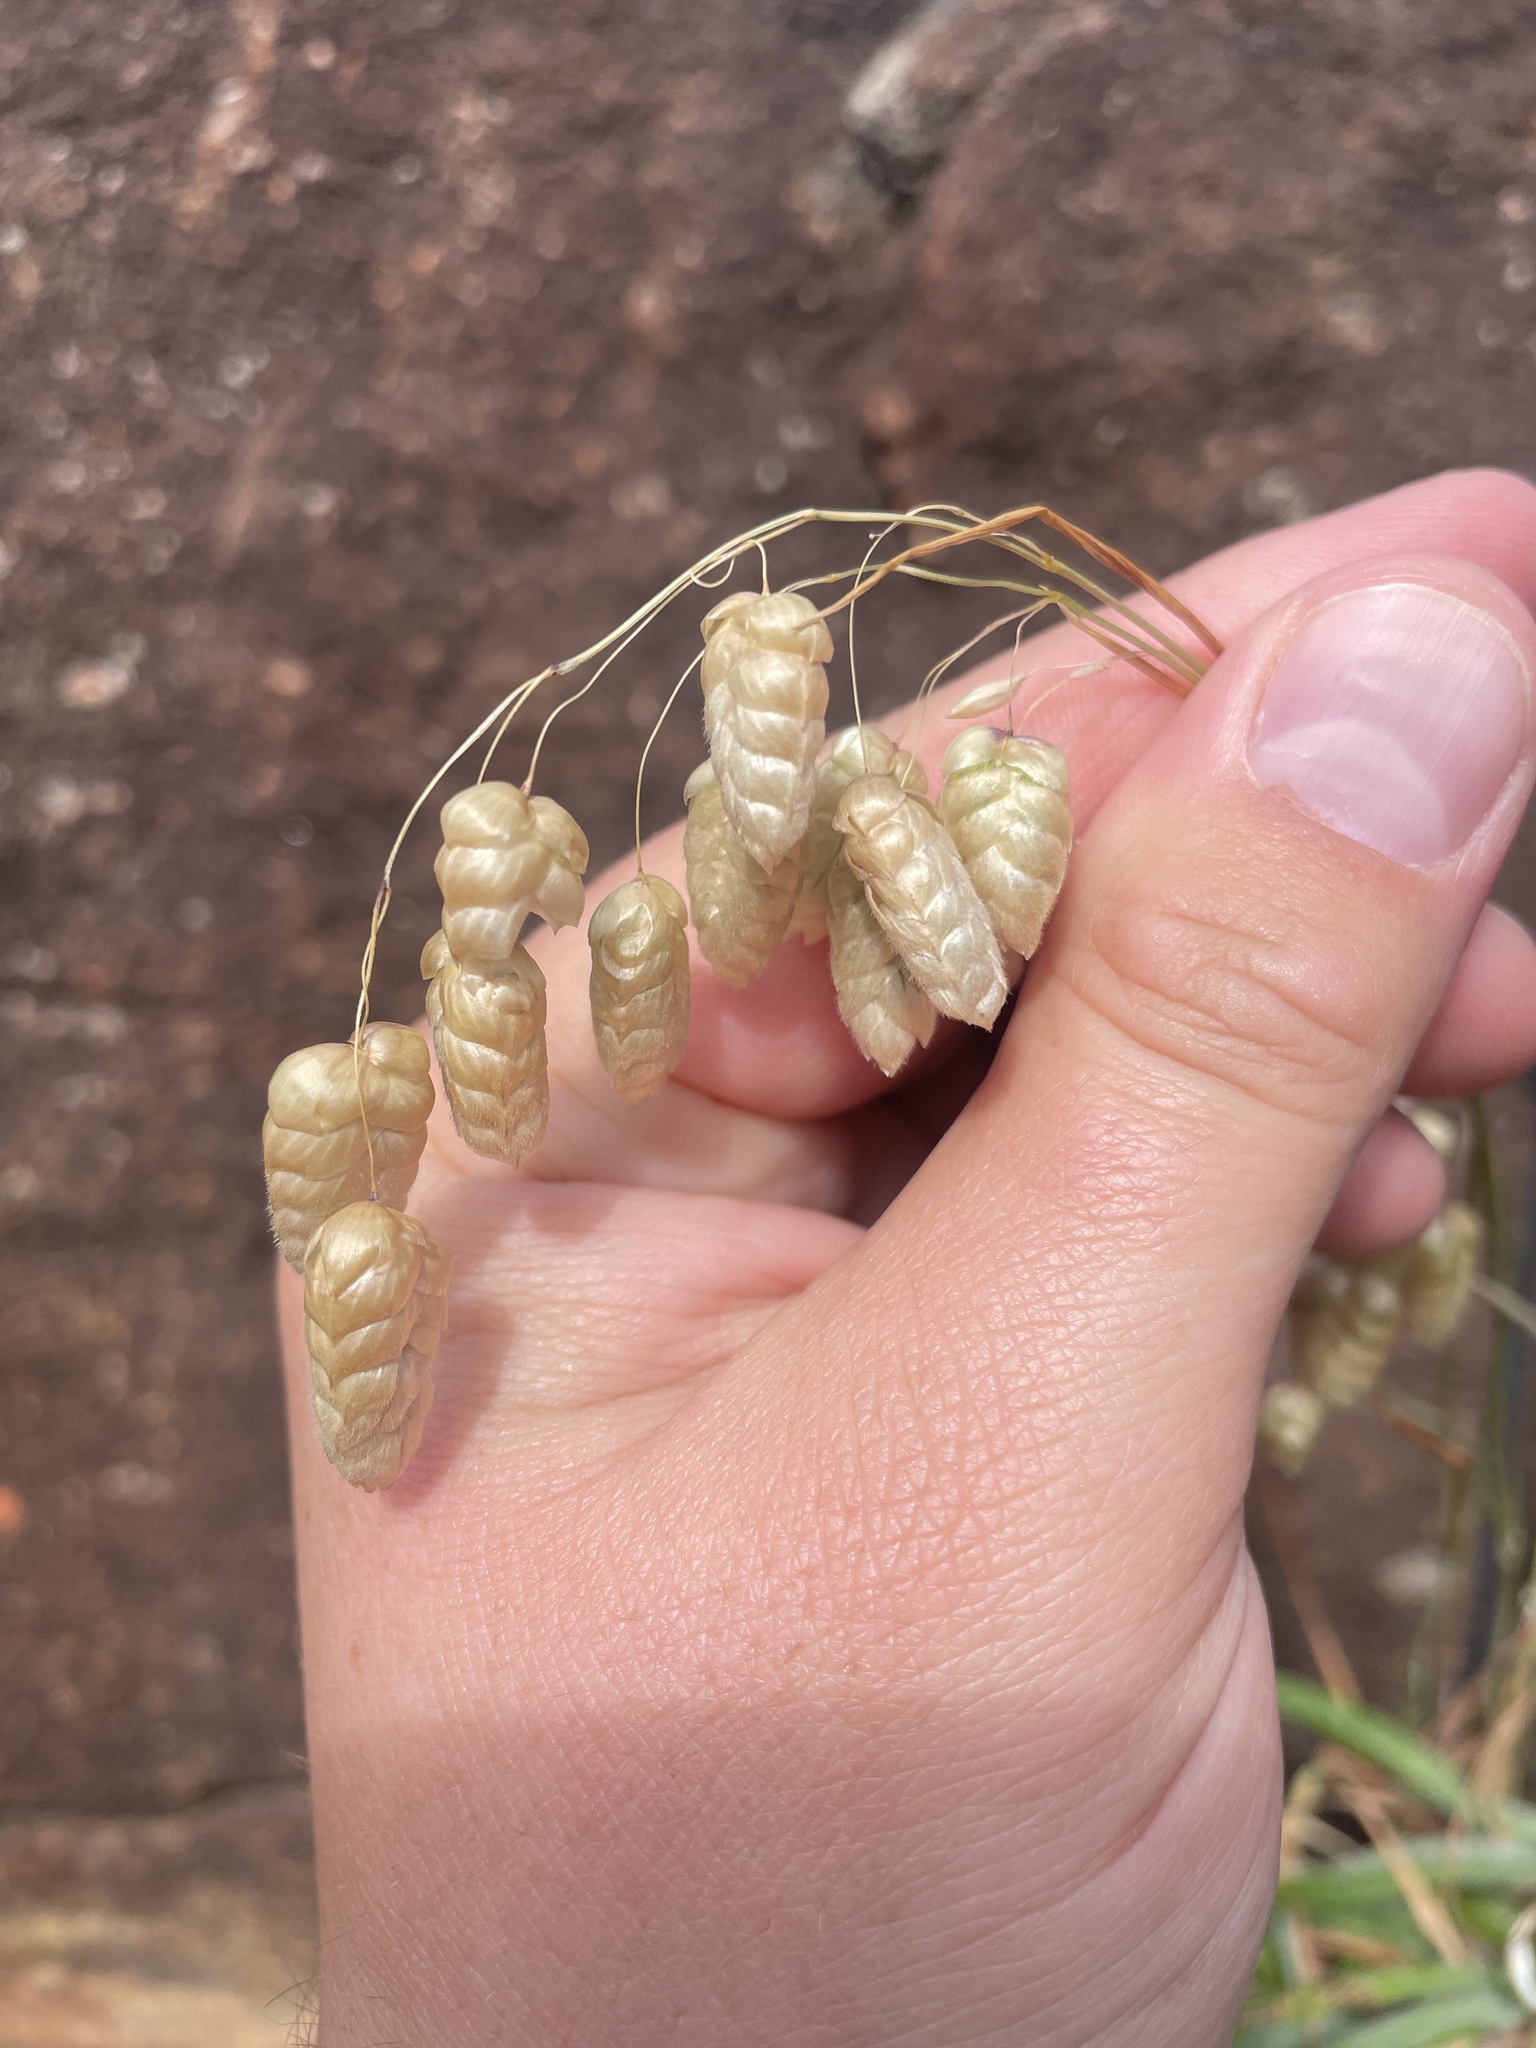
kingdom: Plantae
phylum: Tracheophyta
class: Liliopsida
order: Poales
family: Poaceae
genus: Briza
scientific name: Briza maxima
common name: Big quakinggrass
